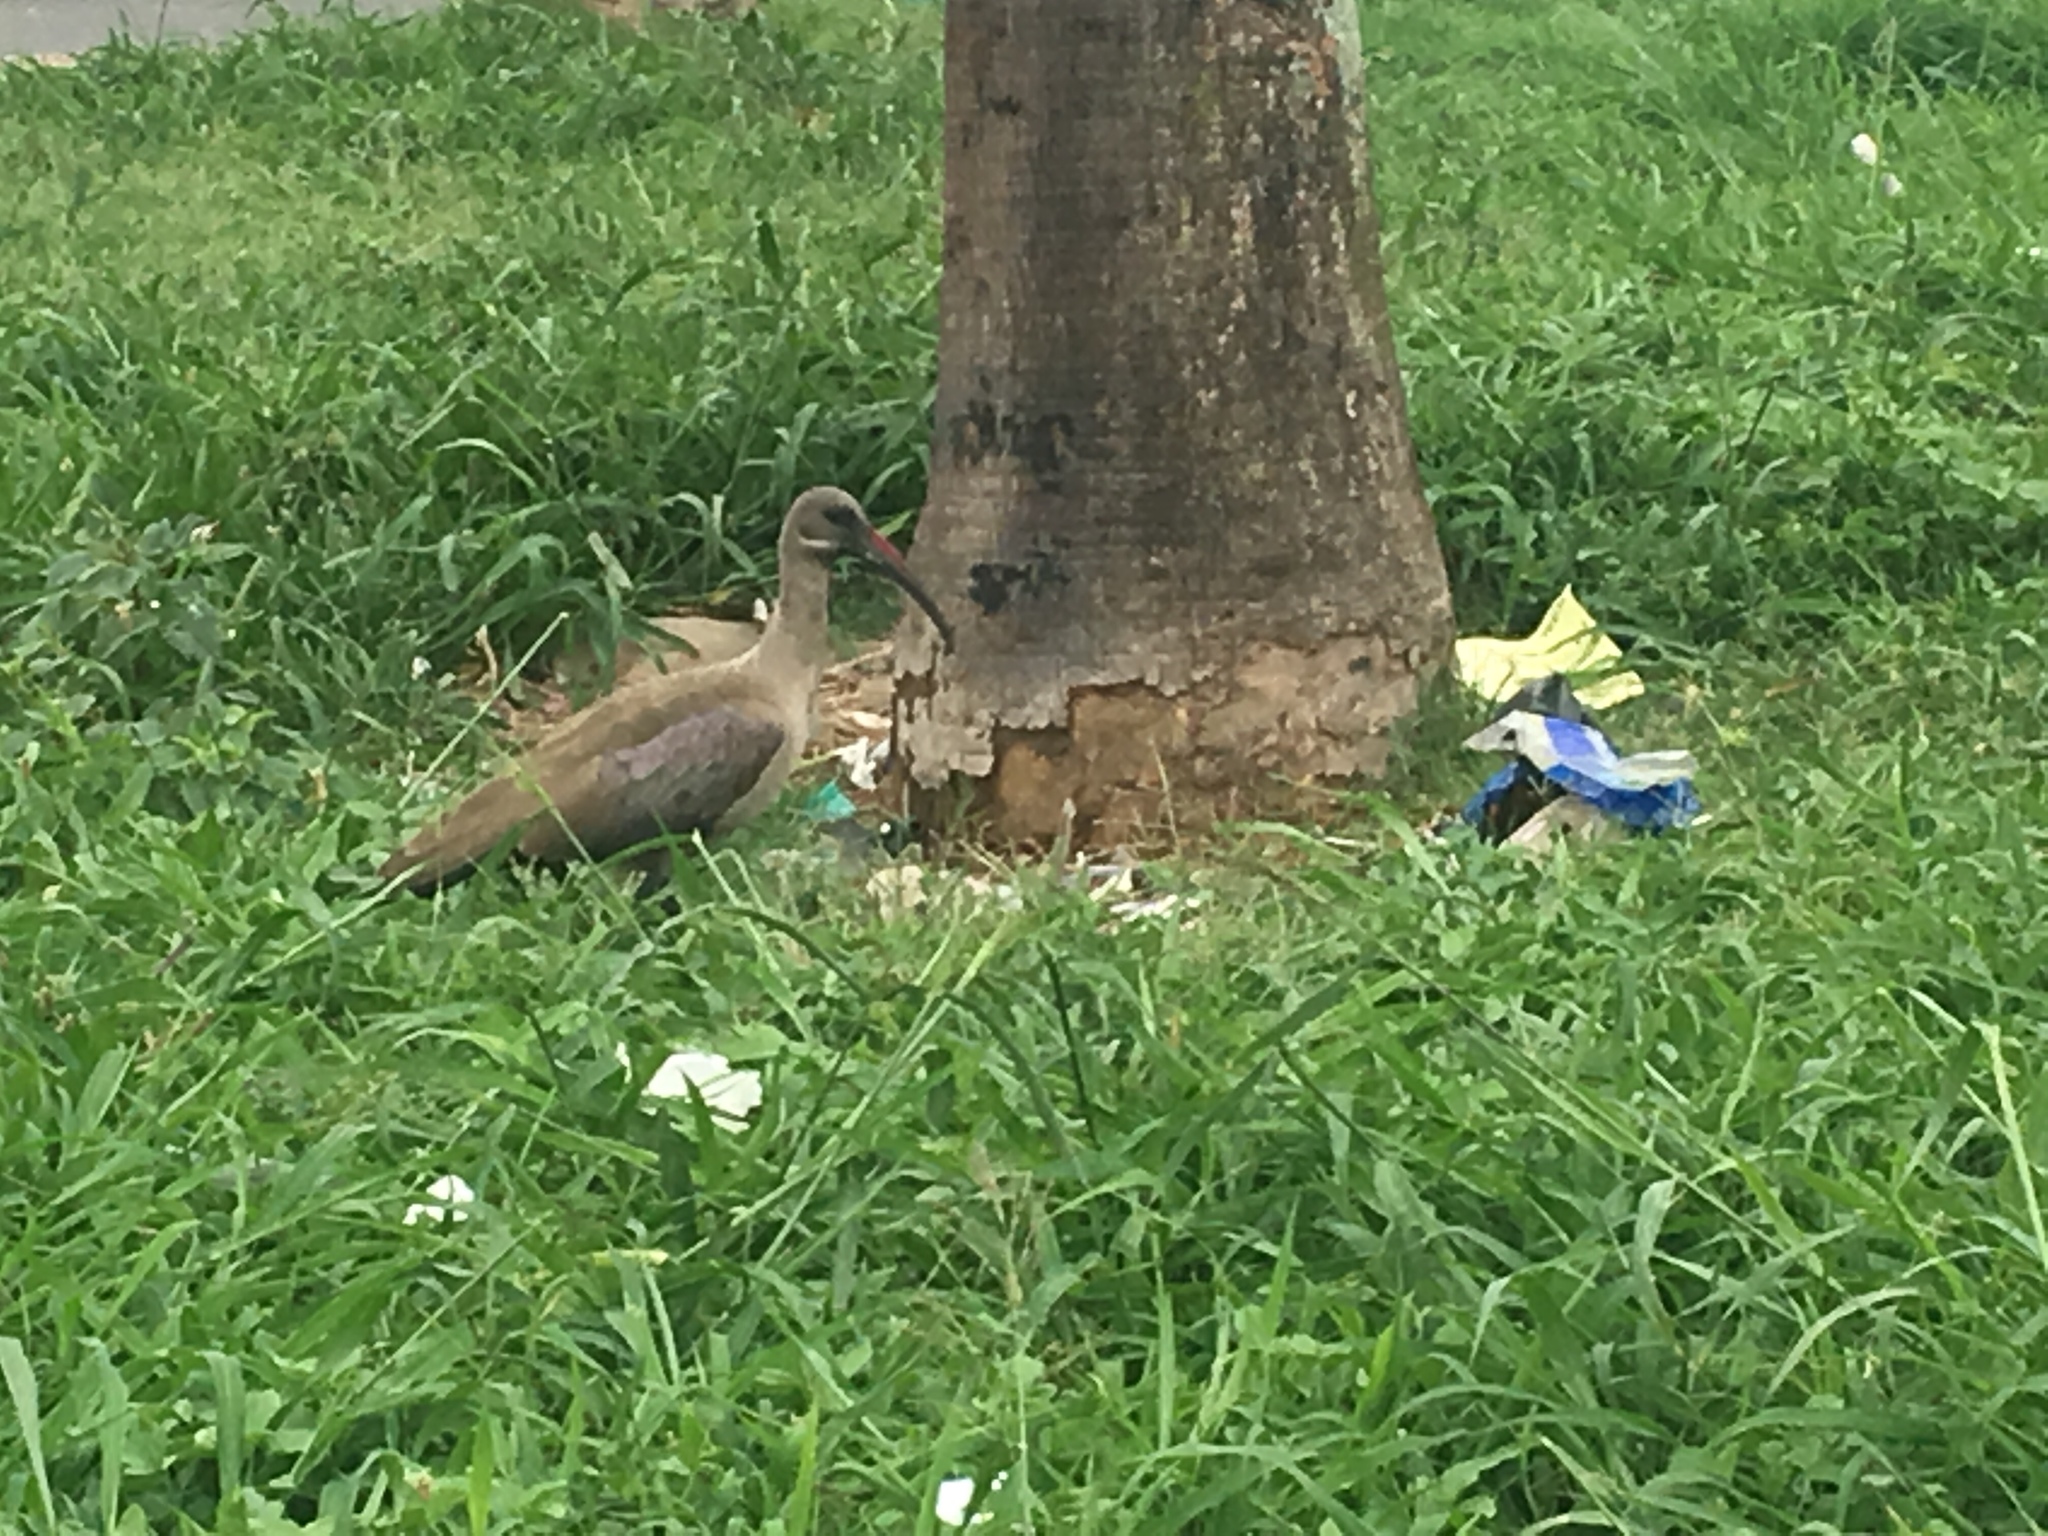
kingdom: Animalia
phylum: Chordata
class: Aves
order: Pelecaniformes
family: Threskiornithidae
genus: Bostrychia
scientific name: Bostrychia hagedash
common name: Hadada ibis
